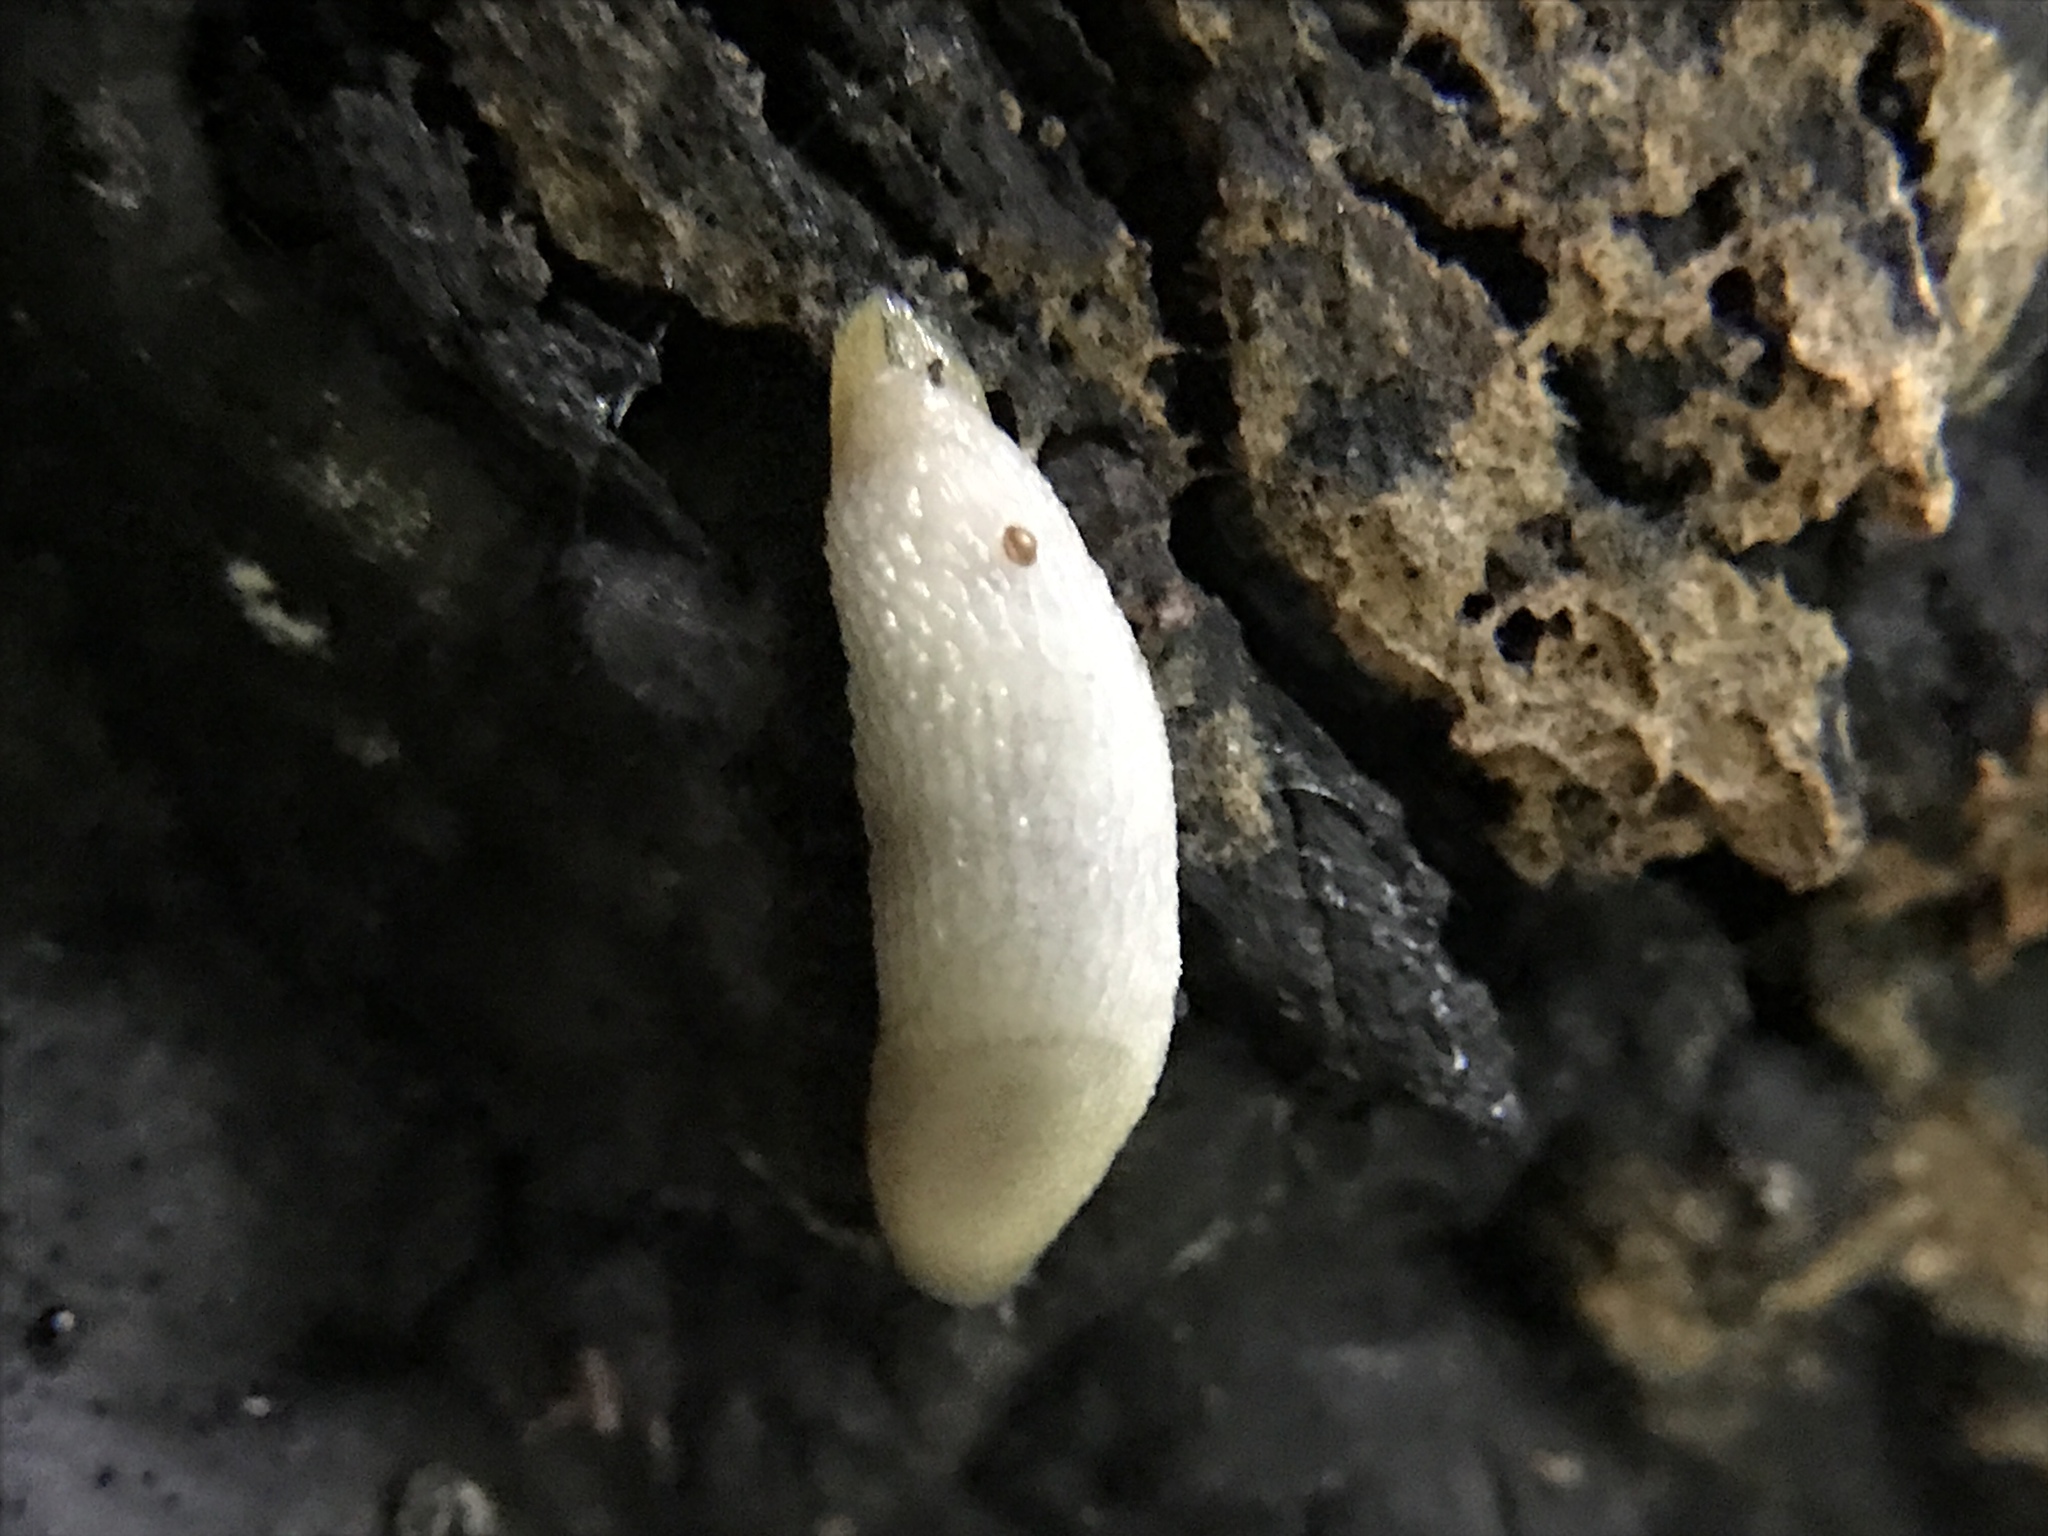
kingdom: Animalia
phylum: Mollusca
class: Gastropoda
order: Stylommatophora
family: Arionidae
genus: Arion
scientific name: Arion intermedius
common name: Hedgehog slug
